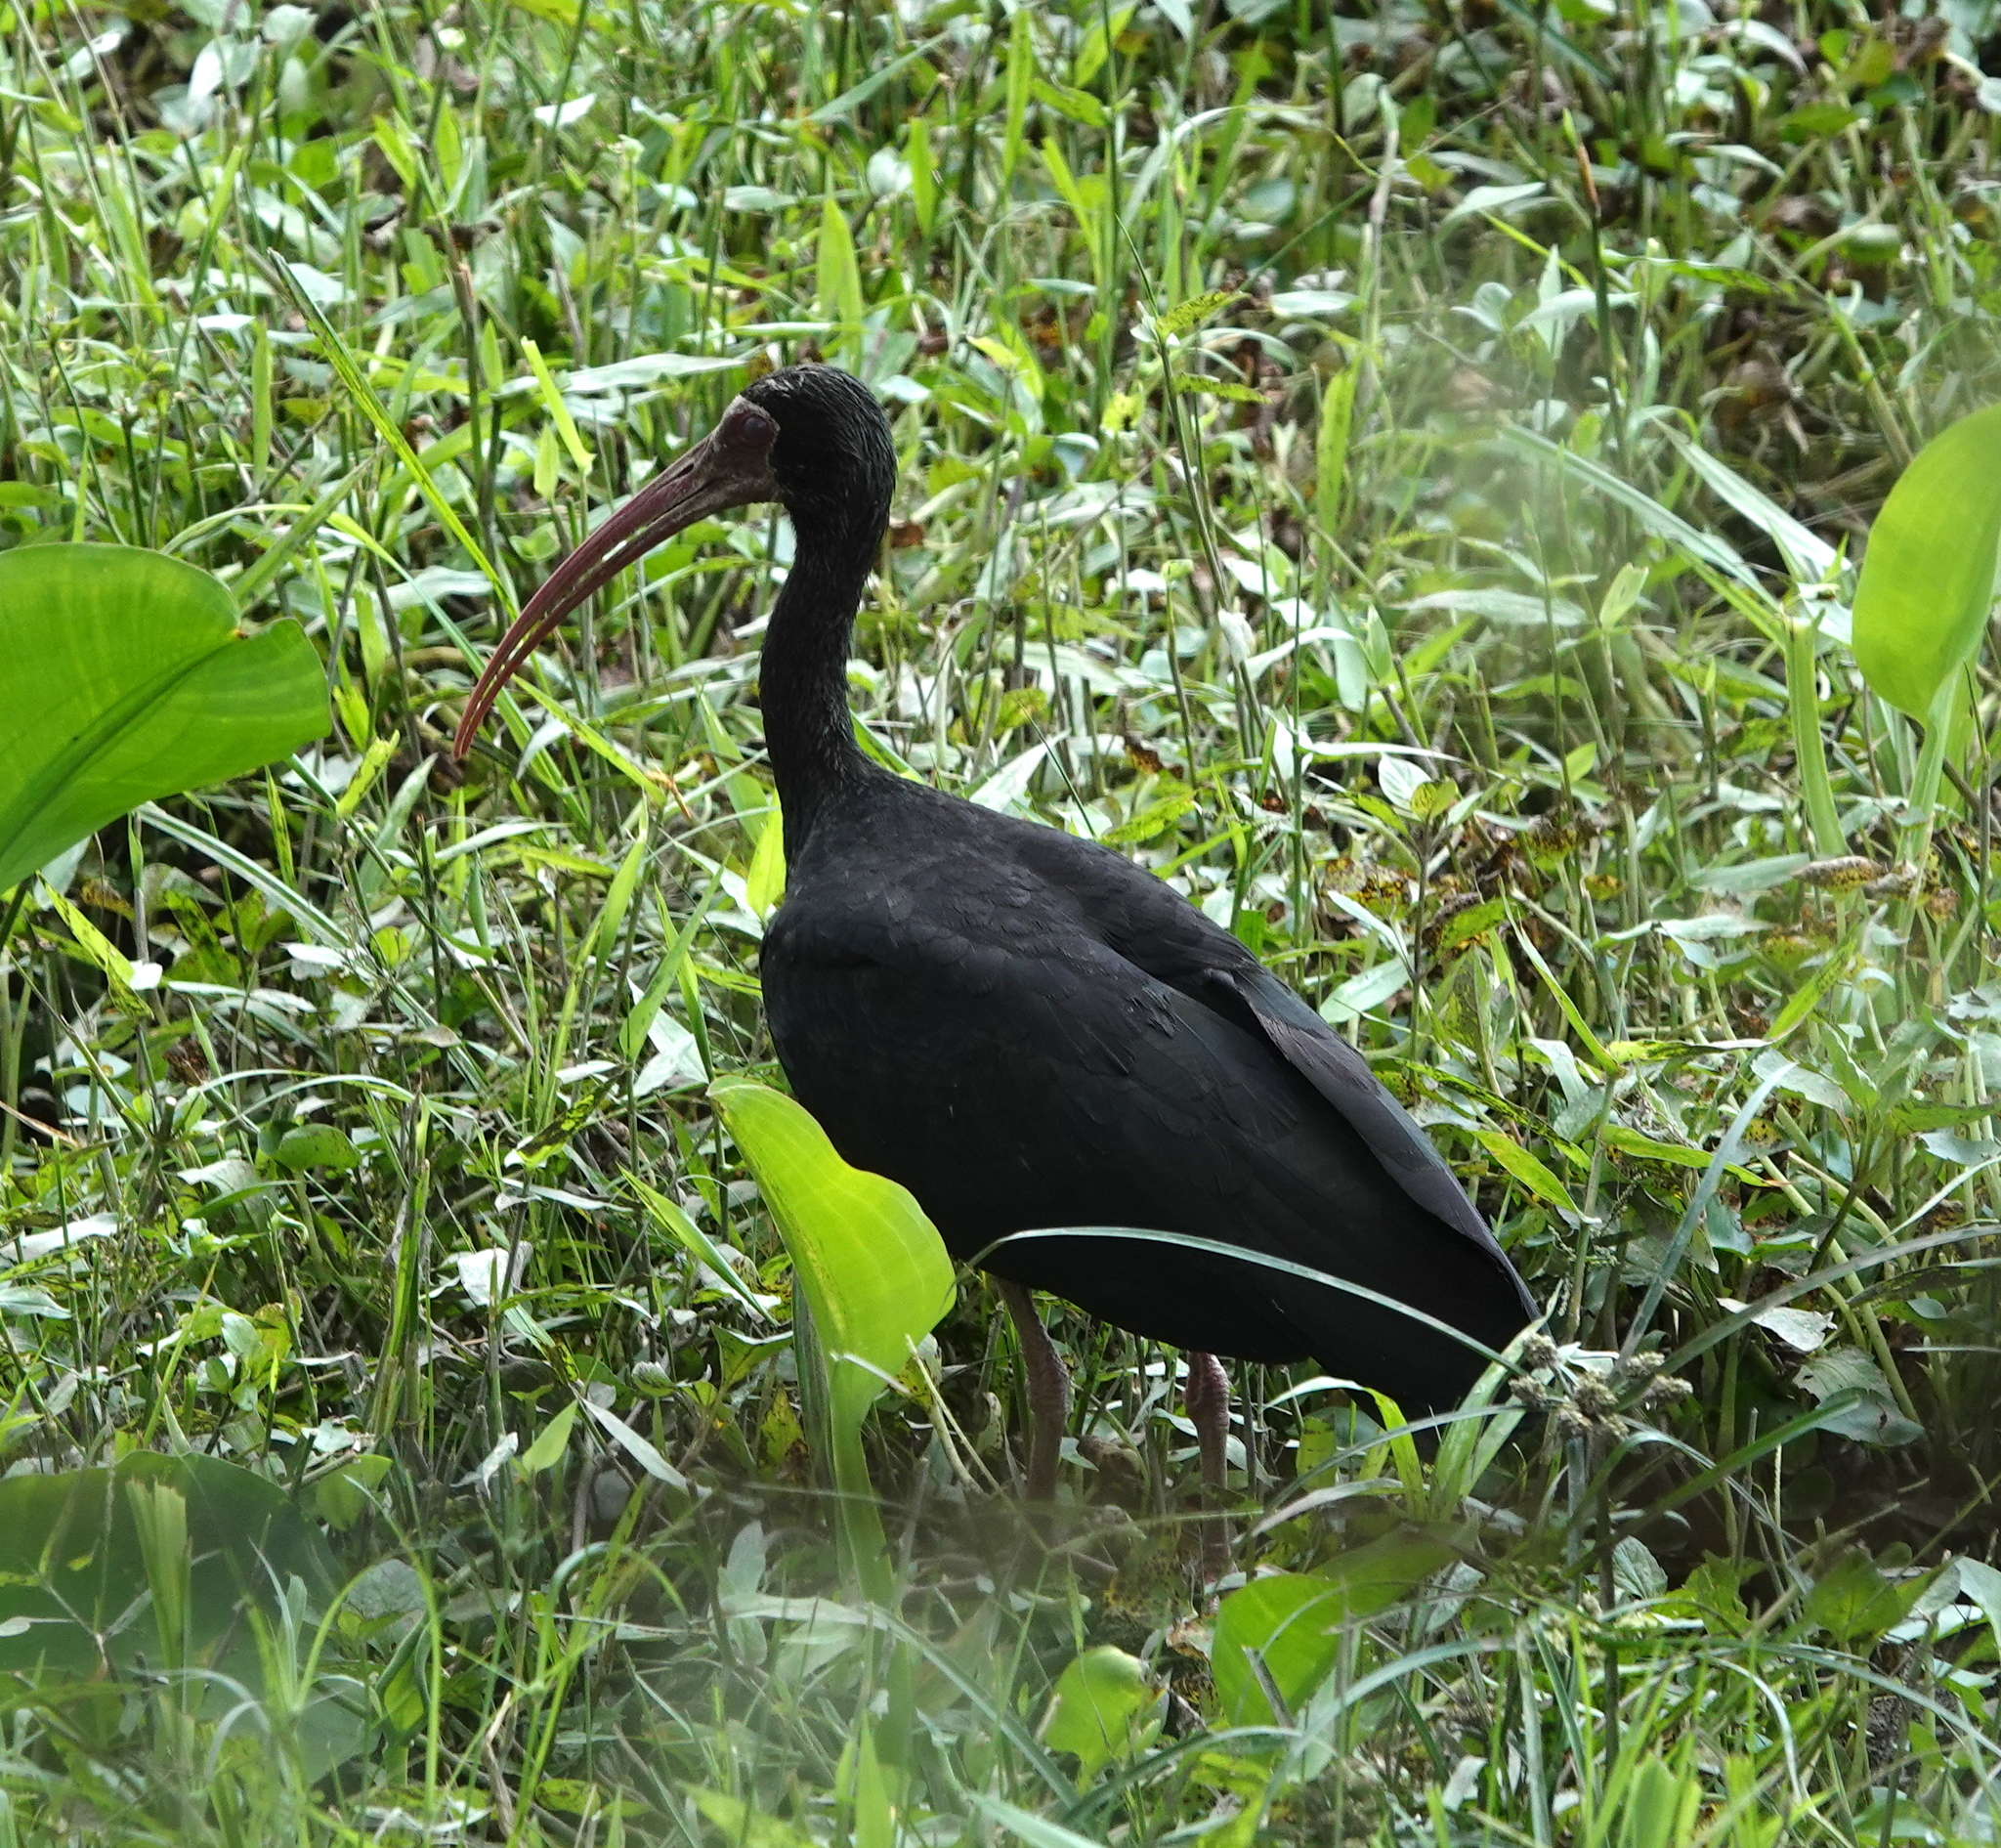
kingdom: Animalia
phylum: Chordata
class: Aves
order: Pelecaniformes
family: Threskiornithidae
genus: Phimosus
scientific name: Phimosus infuscatus
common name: Bare-faced ibis
